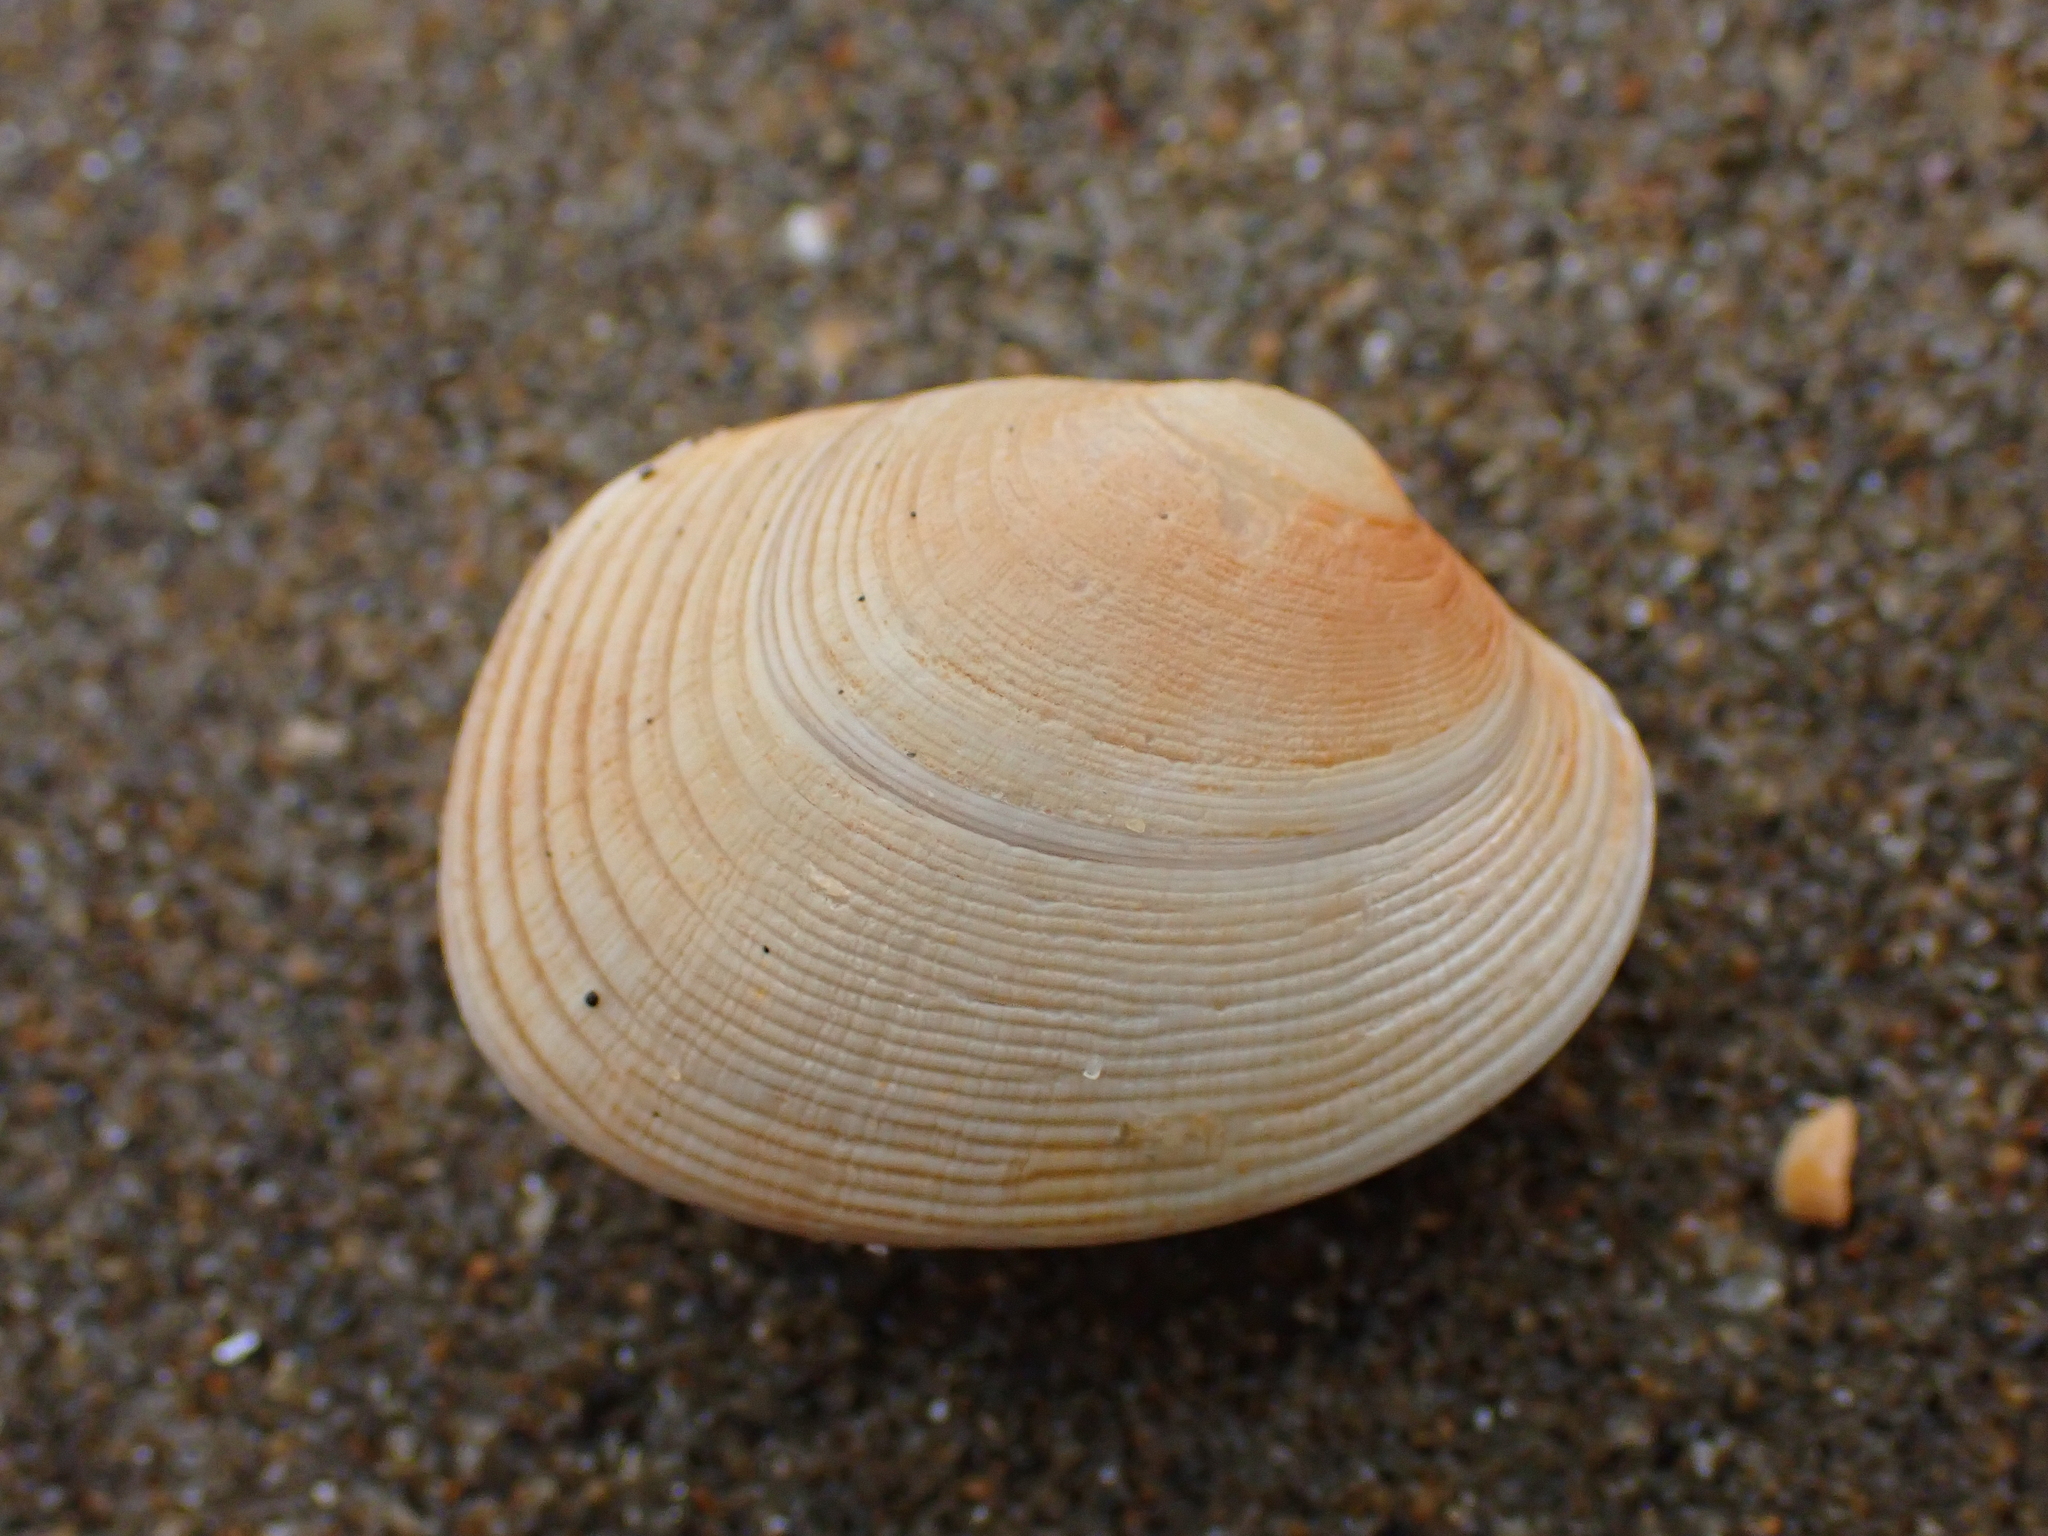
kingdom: Animalia
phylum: Mollusca
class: Bivalvia
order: Venerida
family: Veneridae
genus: Venerupis
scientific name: Venerupis largillierti
